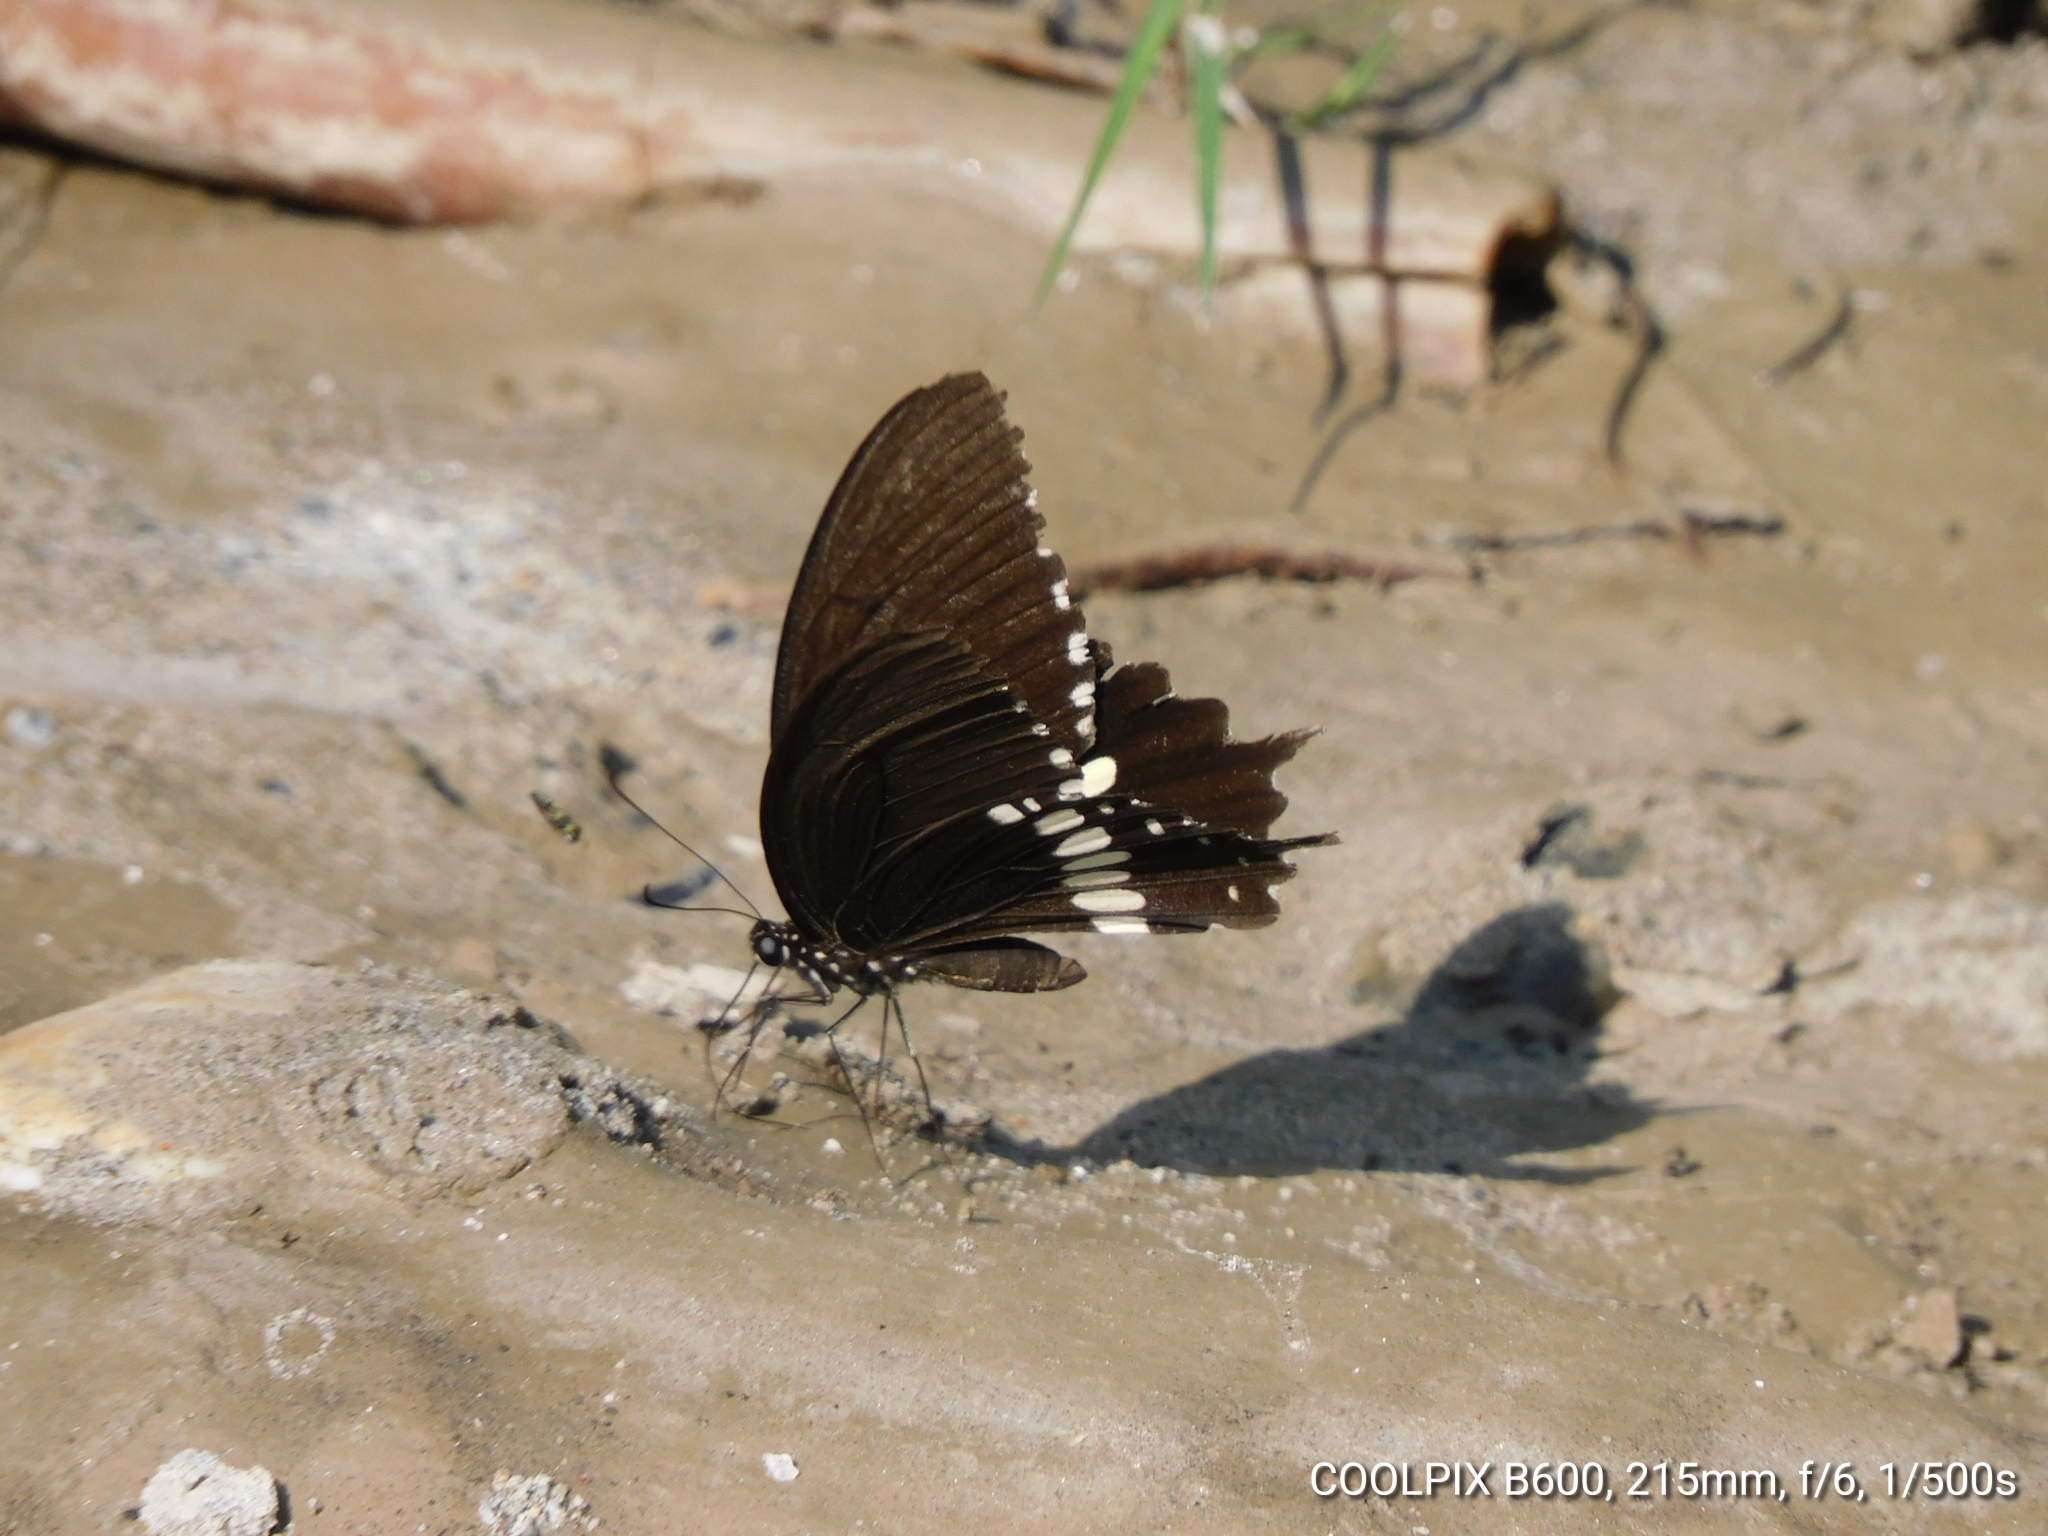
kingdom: Animalia
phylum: Arthropoda
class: Insecta
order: Lepidoptera
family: Papilionidae
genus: Papilio
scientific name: Papilio polytes
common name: Common mormon
